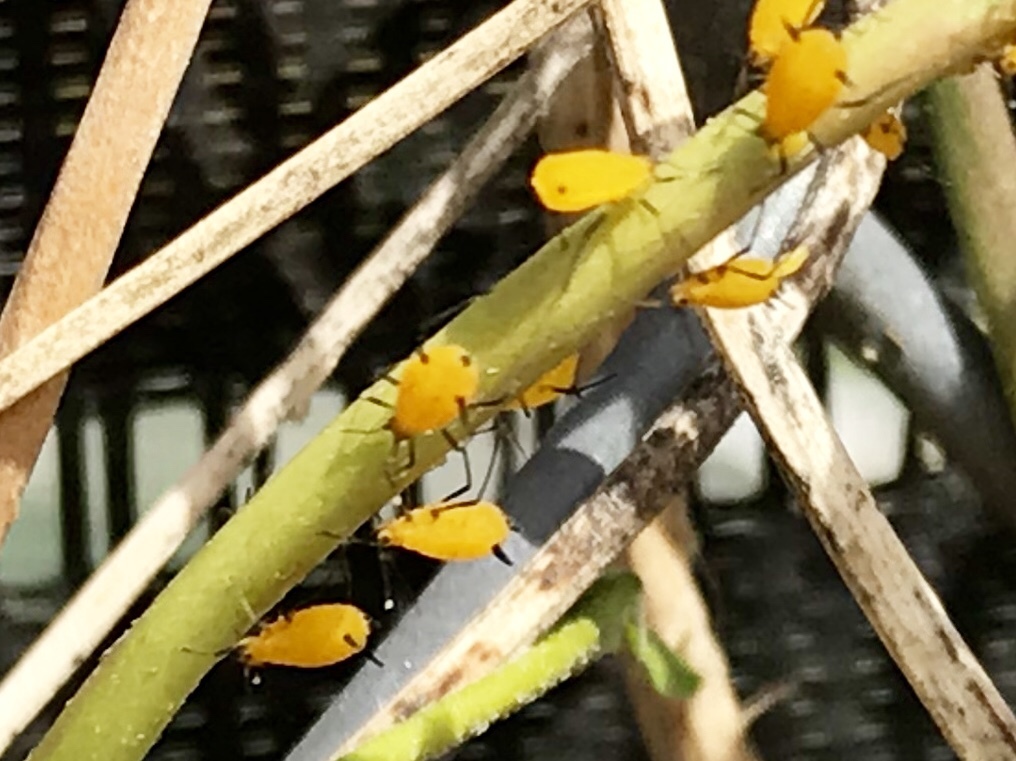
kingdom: Animalia
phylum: Arthropoda
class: Insecta
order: Hemiptera
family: Aphididae
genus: Aphis
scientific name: Aphis nerii
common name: Oleander aphid
